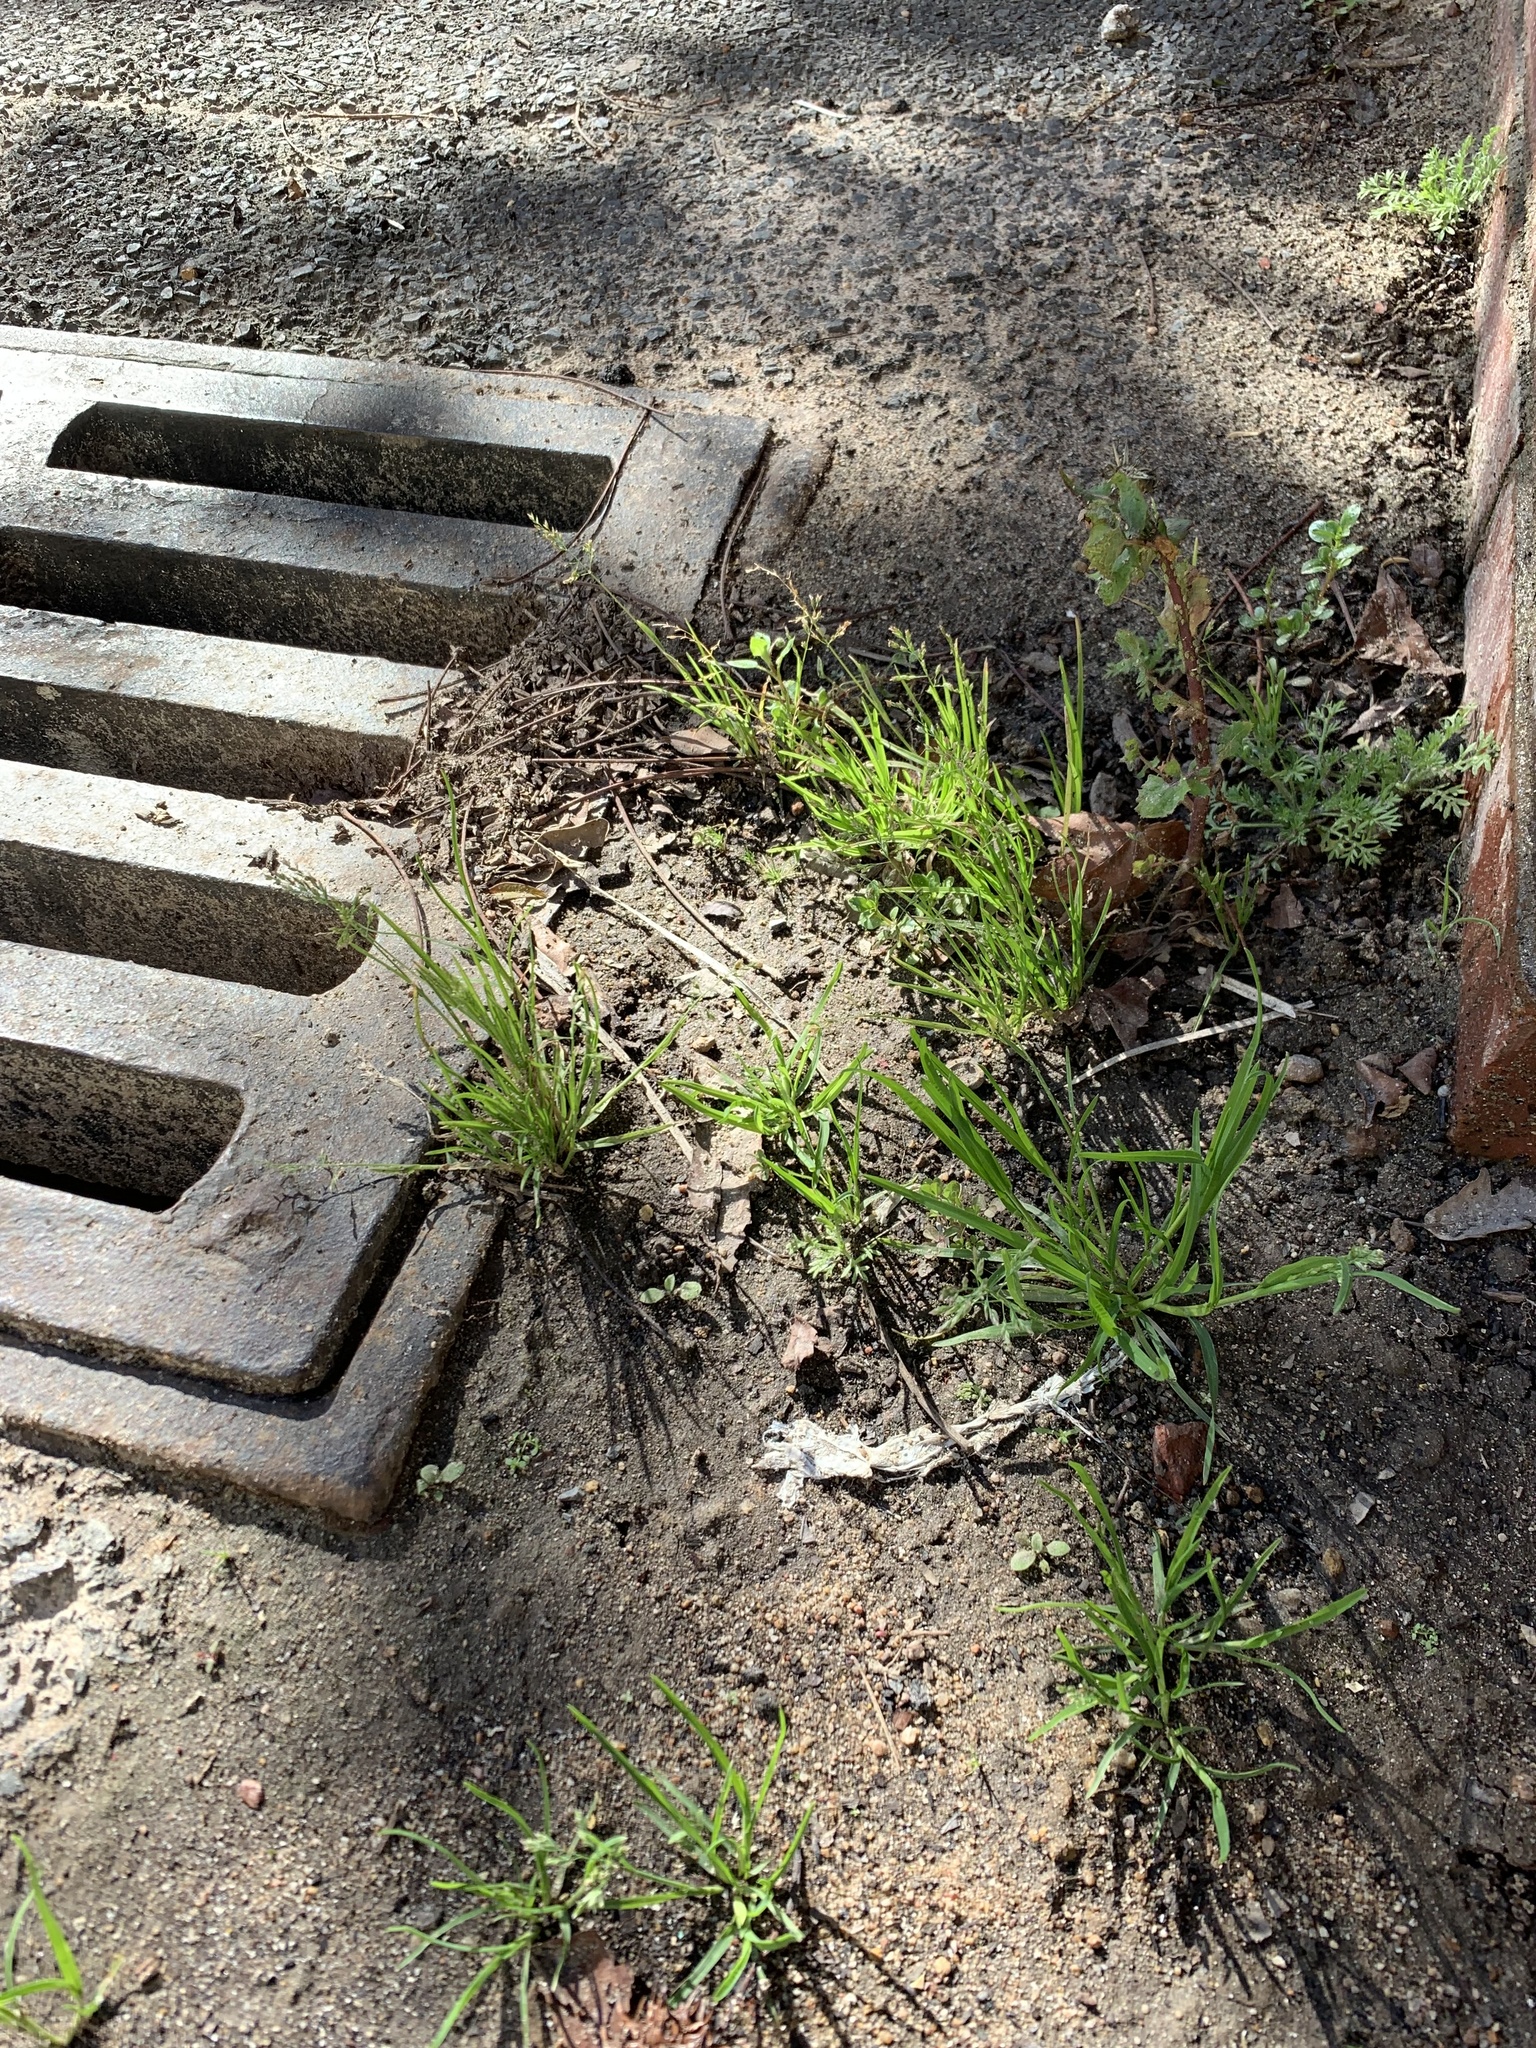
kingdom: Plantae
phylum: Tracheophyta
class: Liliopsida
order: Poales
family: Poaceae
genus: Poa
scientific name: Poa annua
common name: Annual bluegrass
